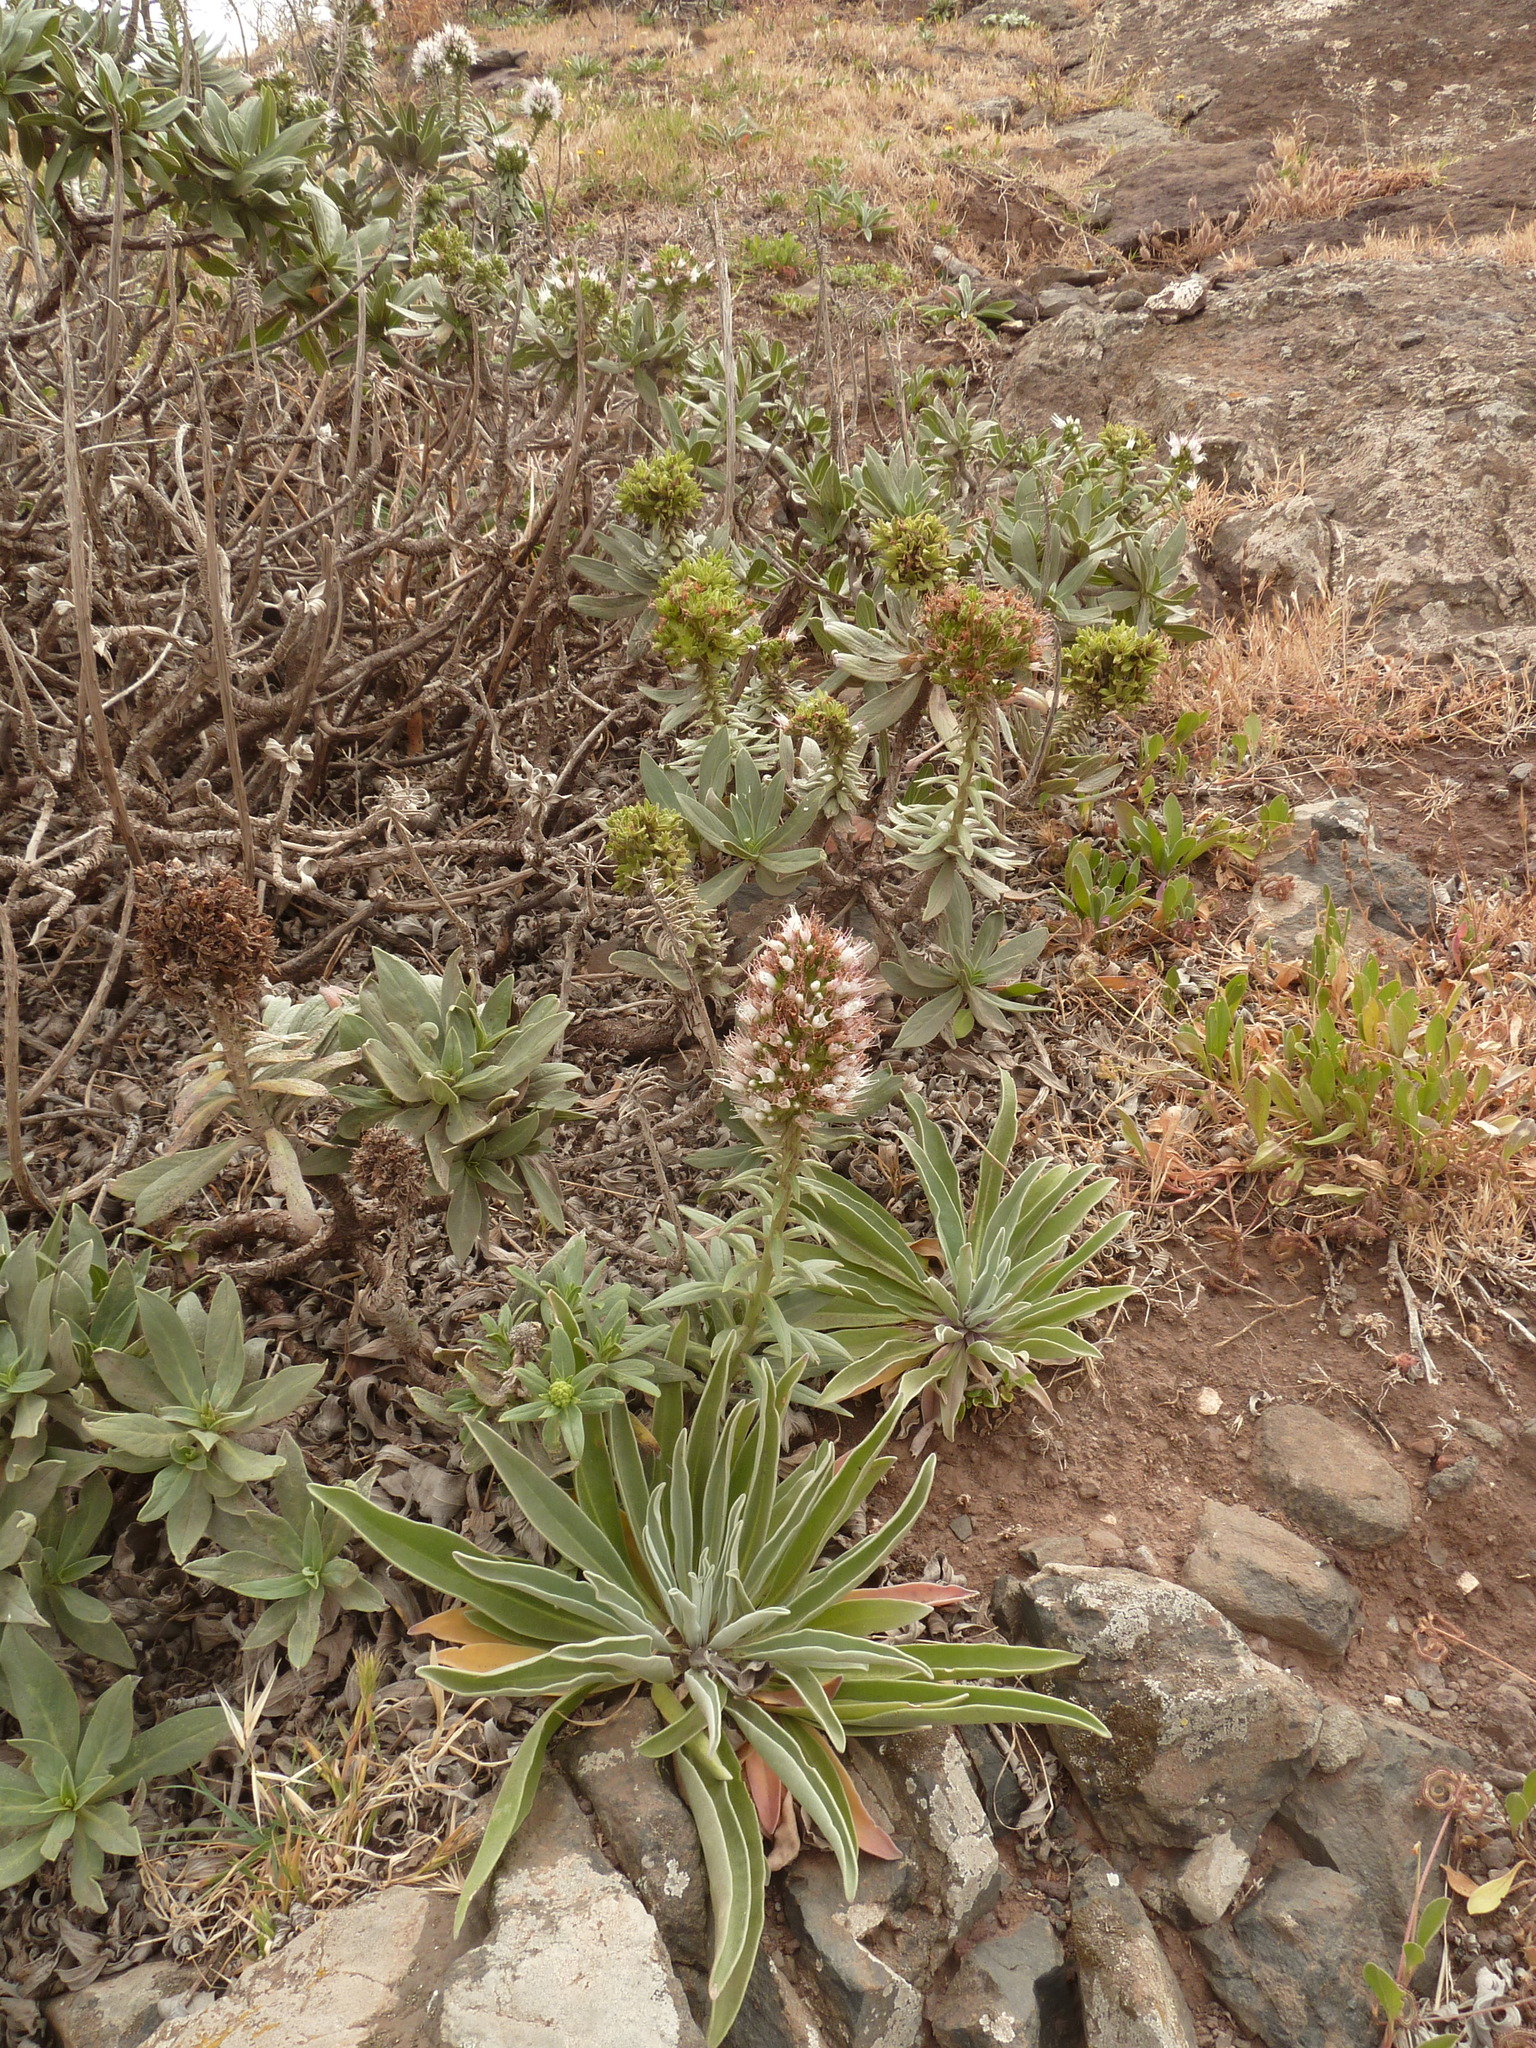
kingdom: Plantae
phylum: Tracheophyta
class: Magnoliopsida
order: Boraginales
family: Boraginaceae
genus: Echium
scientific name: Echium nervosum
